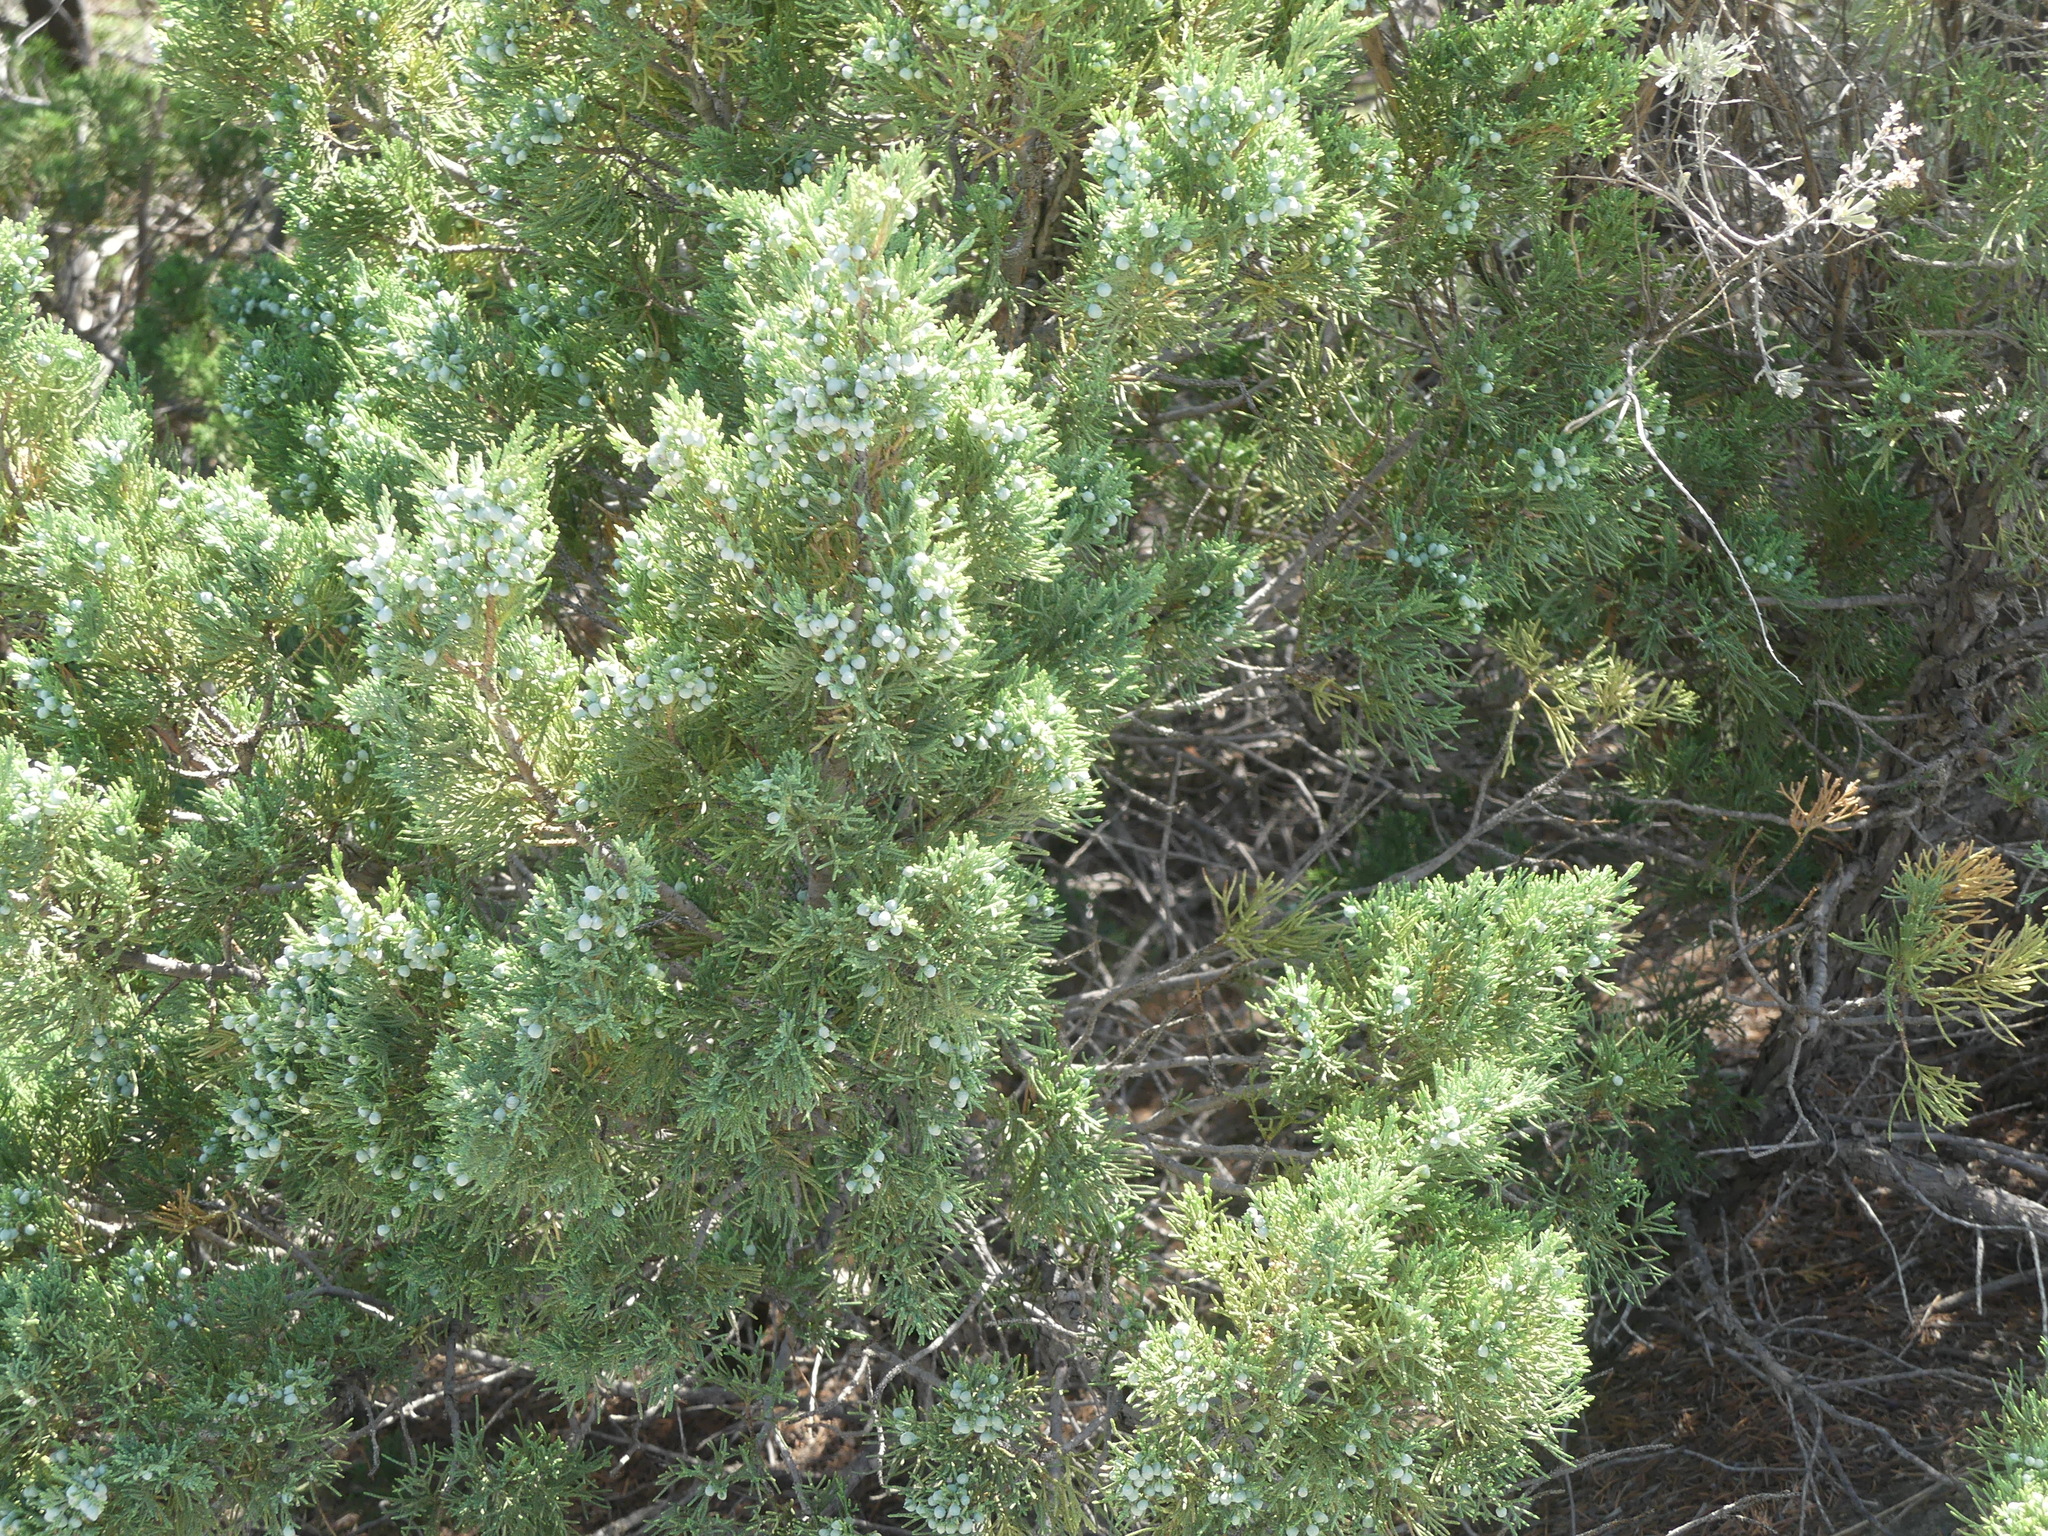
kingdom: Plantae
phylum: Tracheophyta
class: Pinopsida
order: Pinales
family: Cupressaceae
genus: Juniperus
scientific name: Juniperus scopulorum
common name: Rocky mountain juniper
